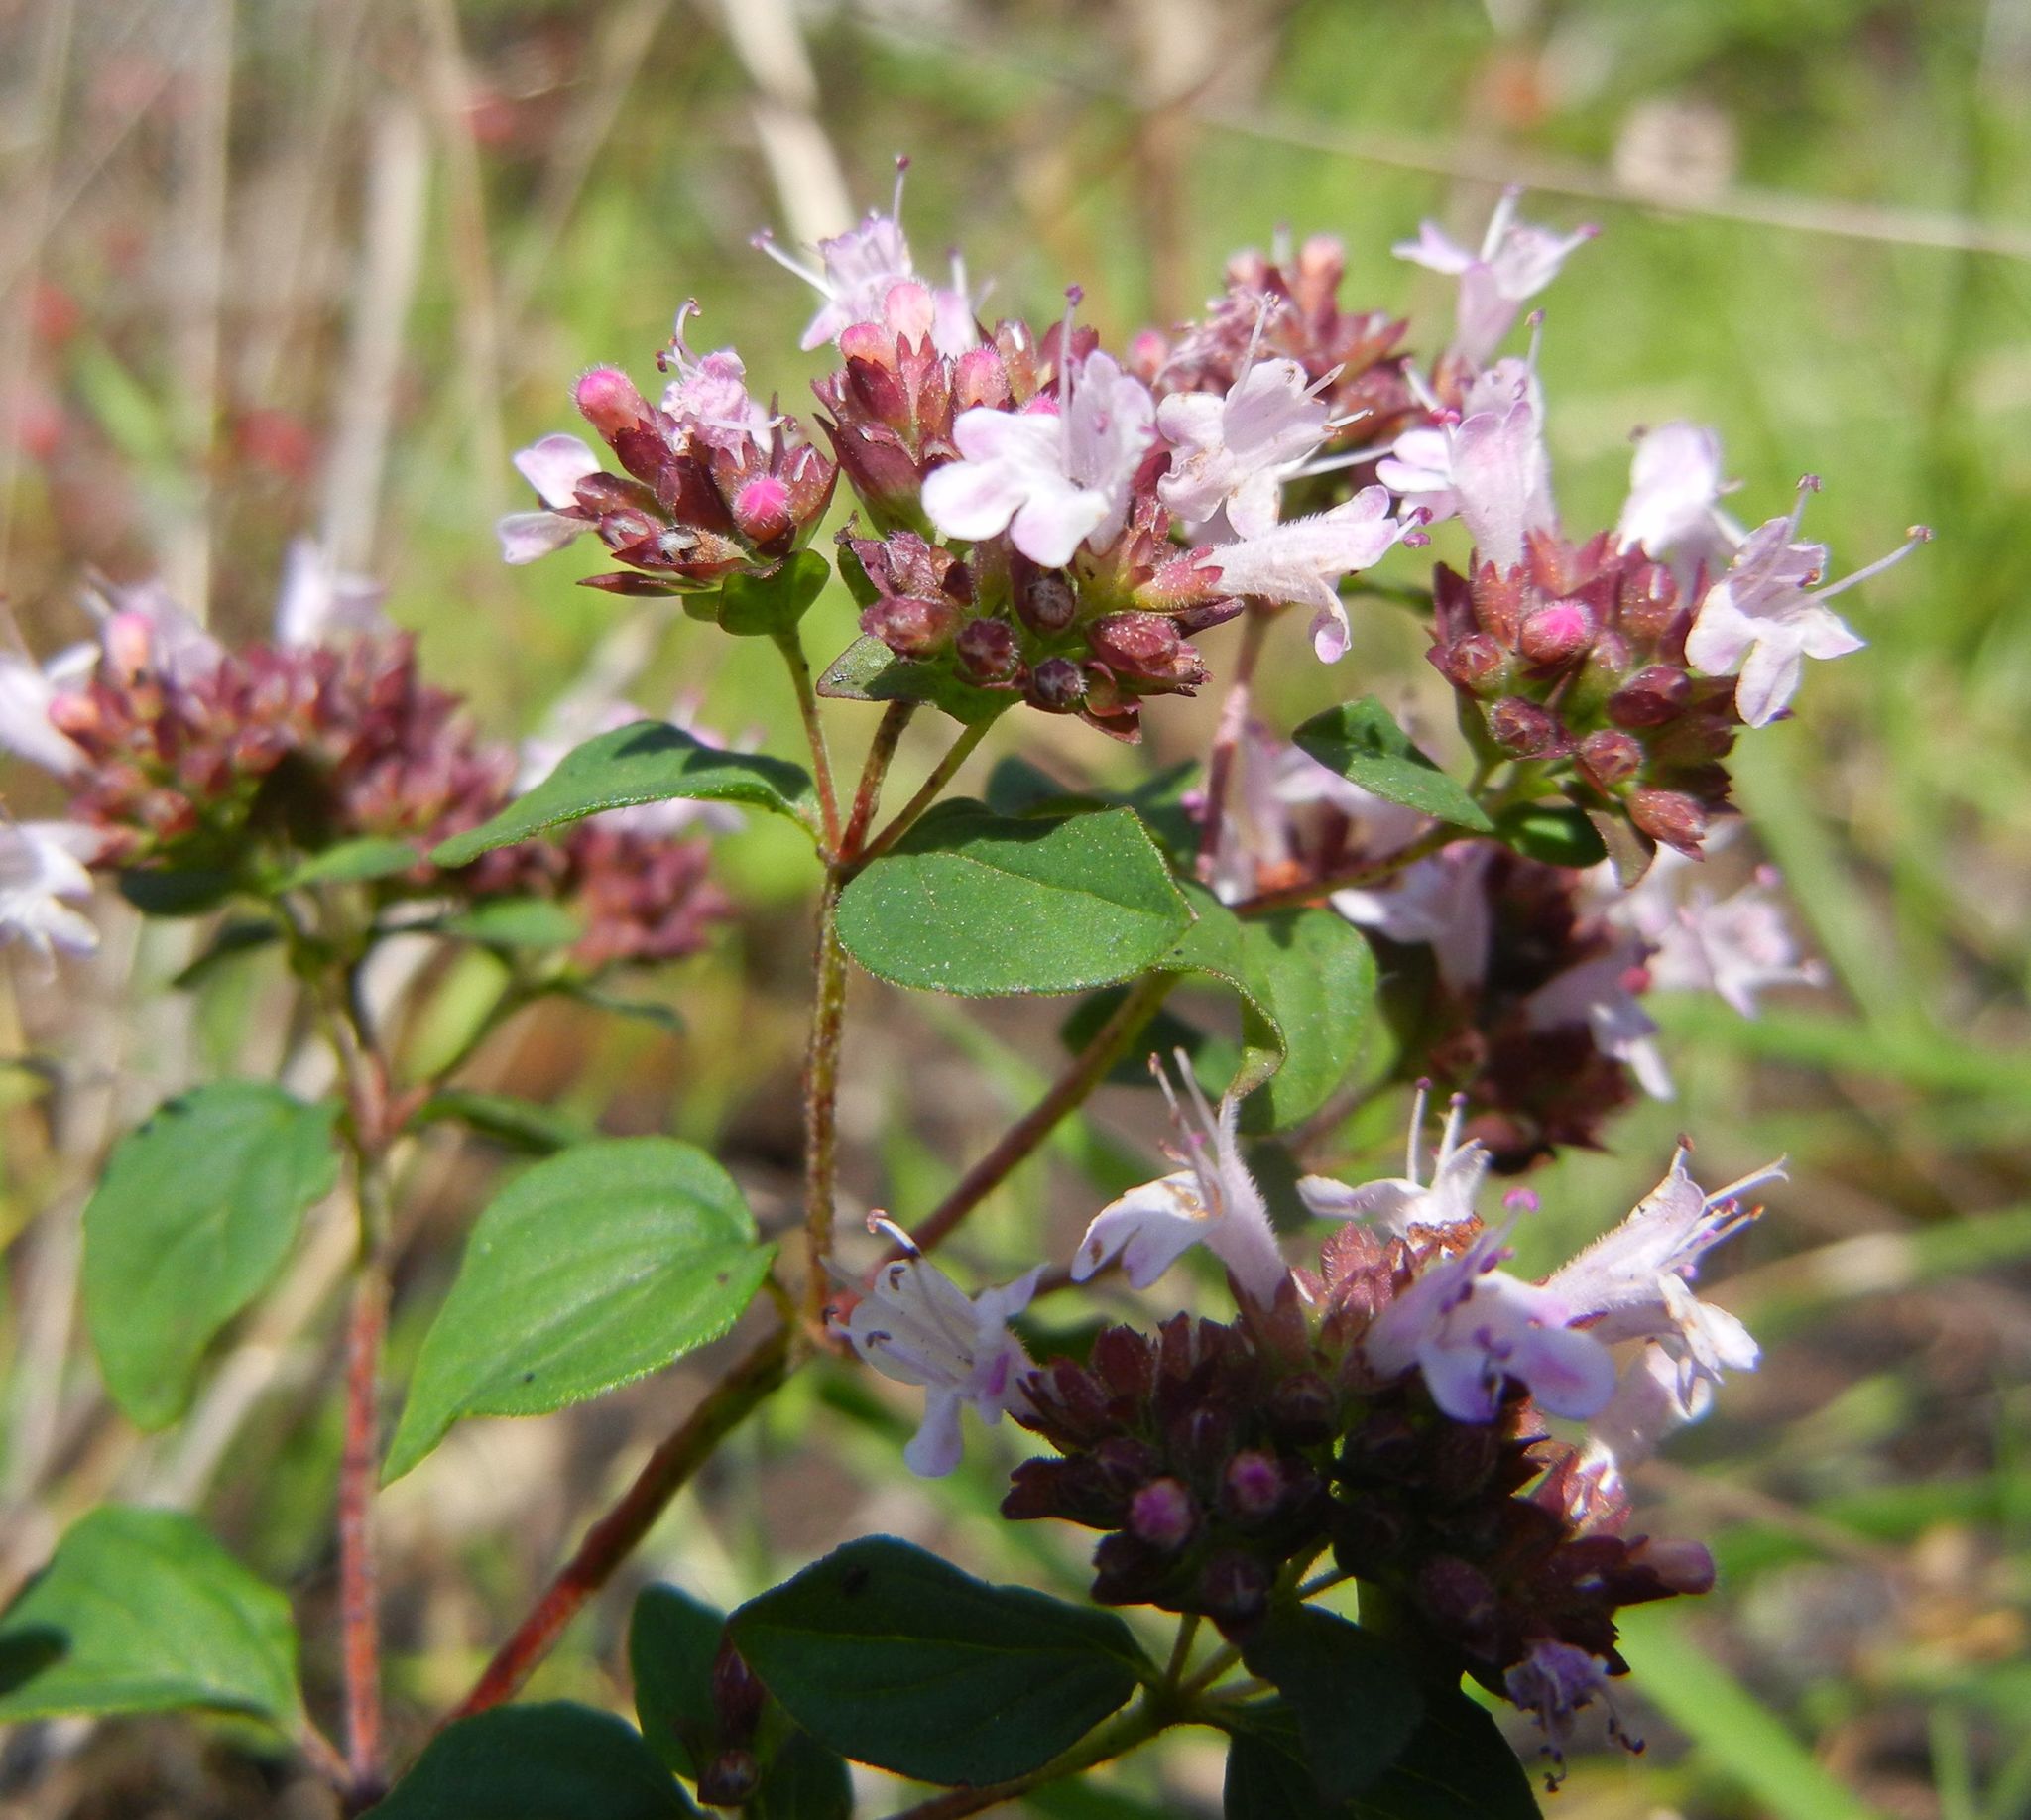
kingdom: Plantae
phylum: Tracheophyta
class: Magnoliopsida
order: Lamiales
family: Lamiaceae
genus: Origanum
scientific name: Origanum vulgare
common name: Wild marjoram
